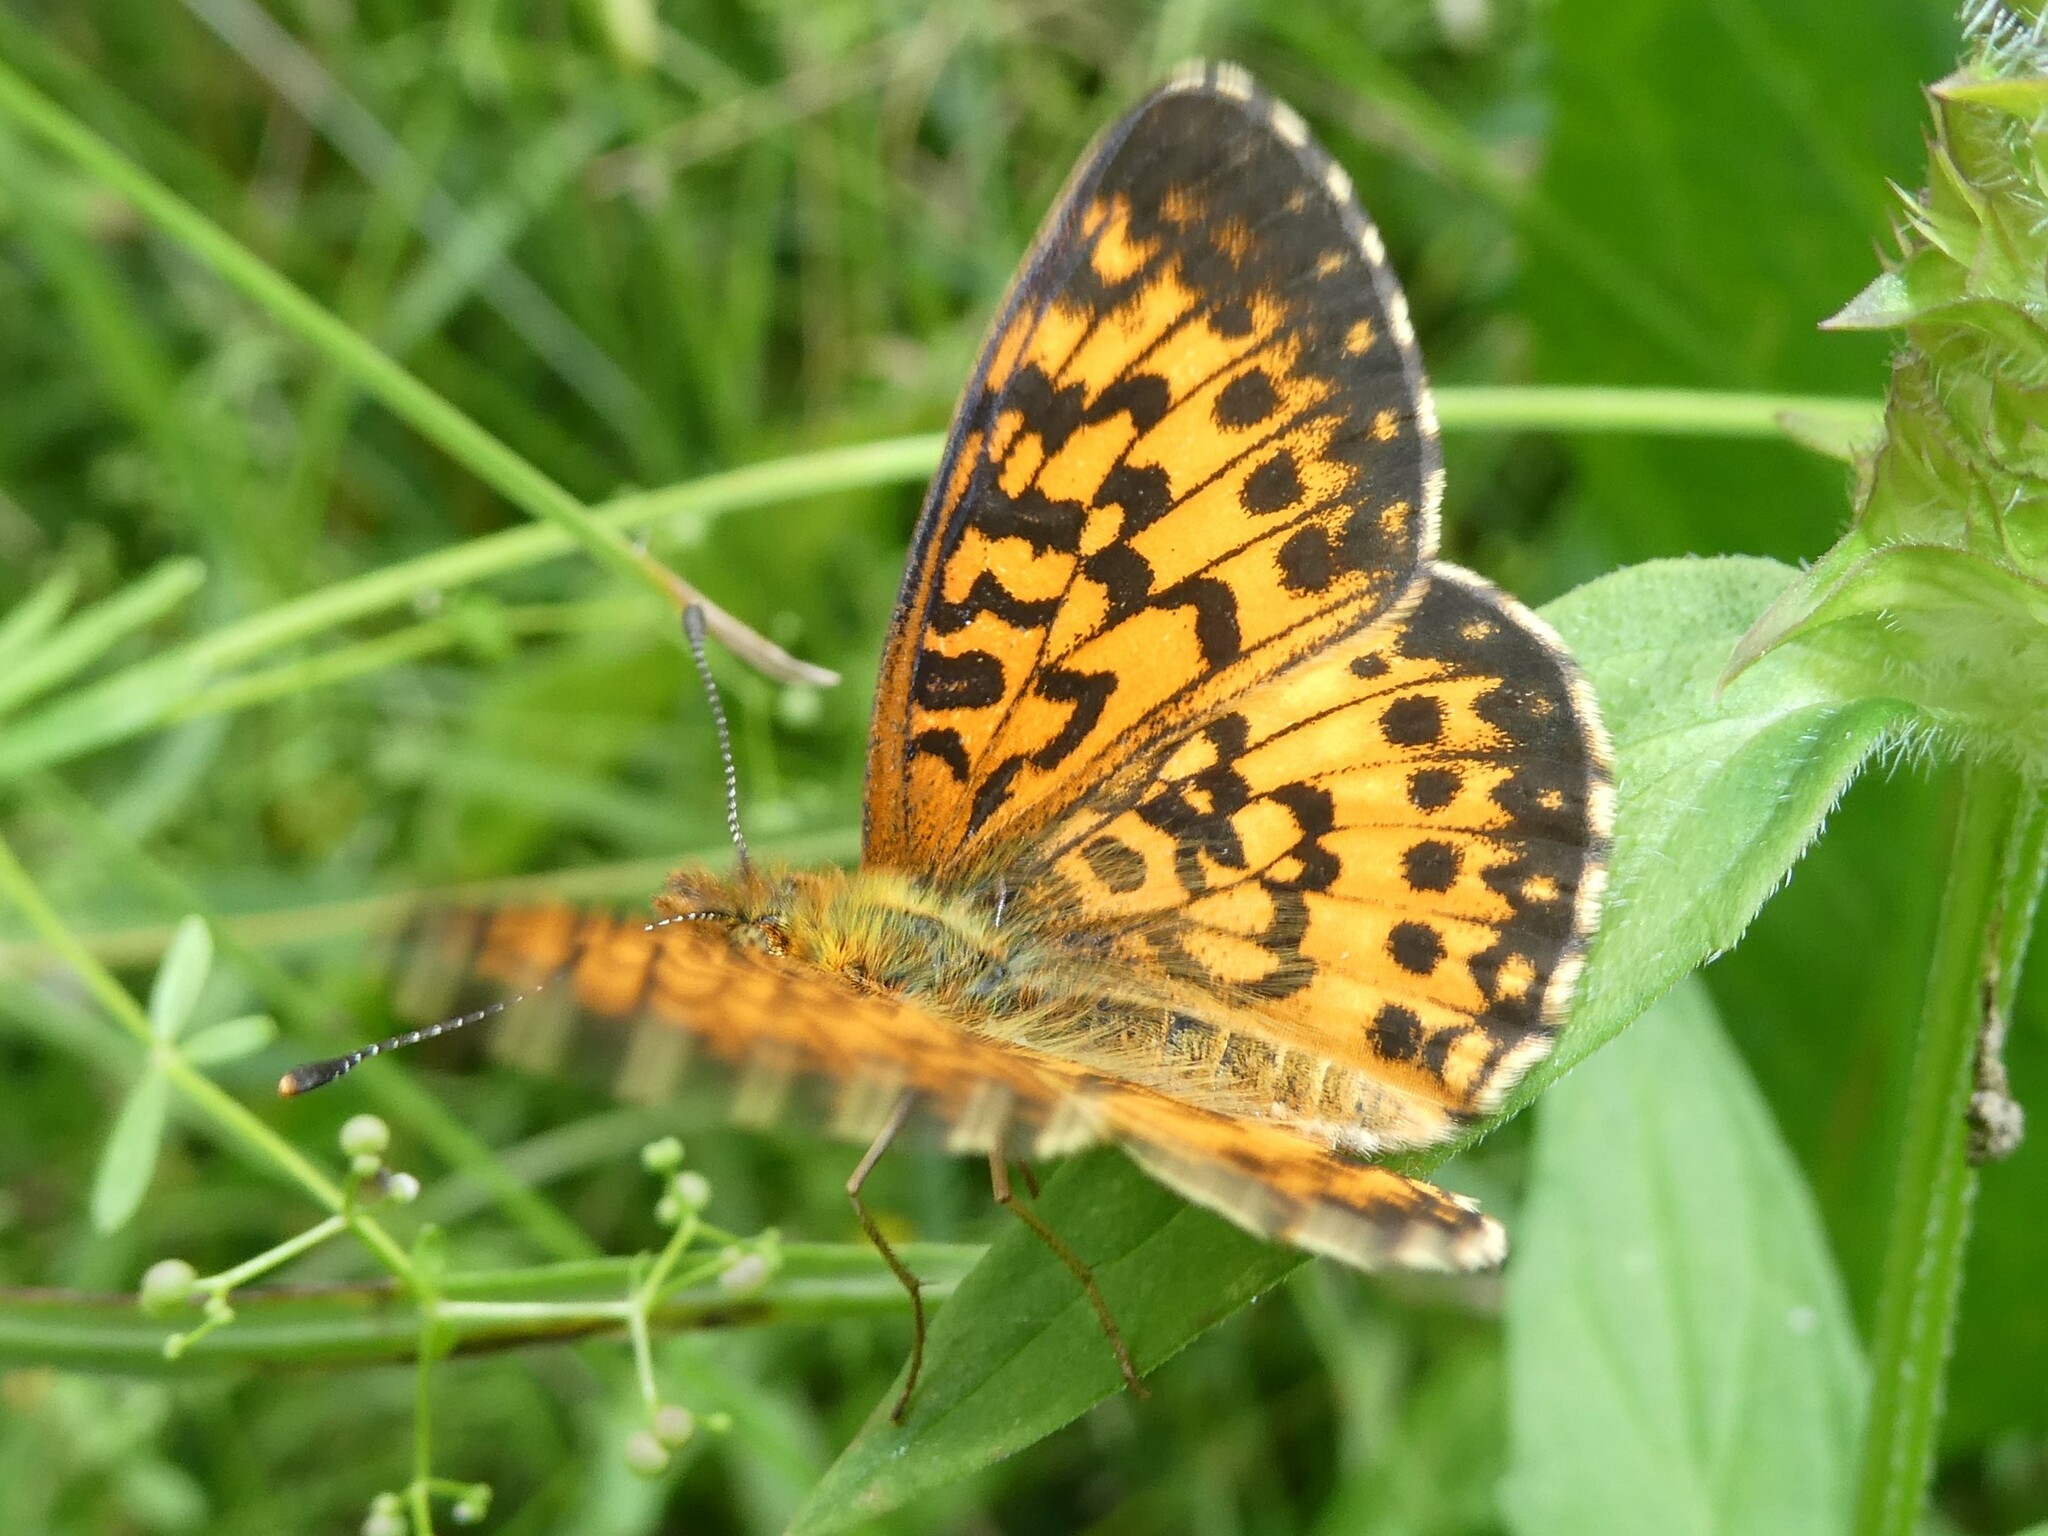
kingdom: Animalia
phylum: Arthropoda
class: Insecta
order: Lepidoptera
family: Nymphalidae
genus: Boloria
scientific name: Boloria
